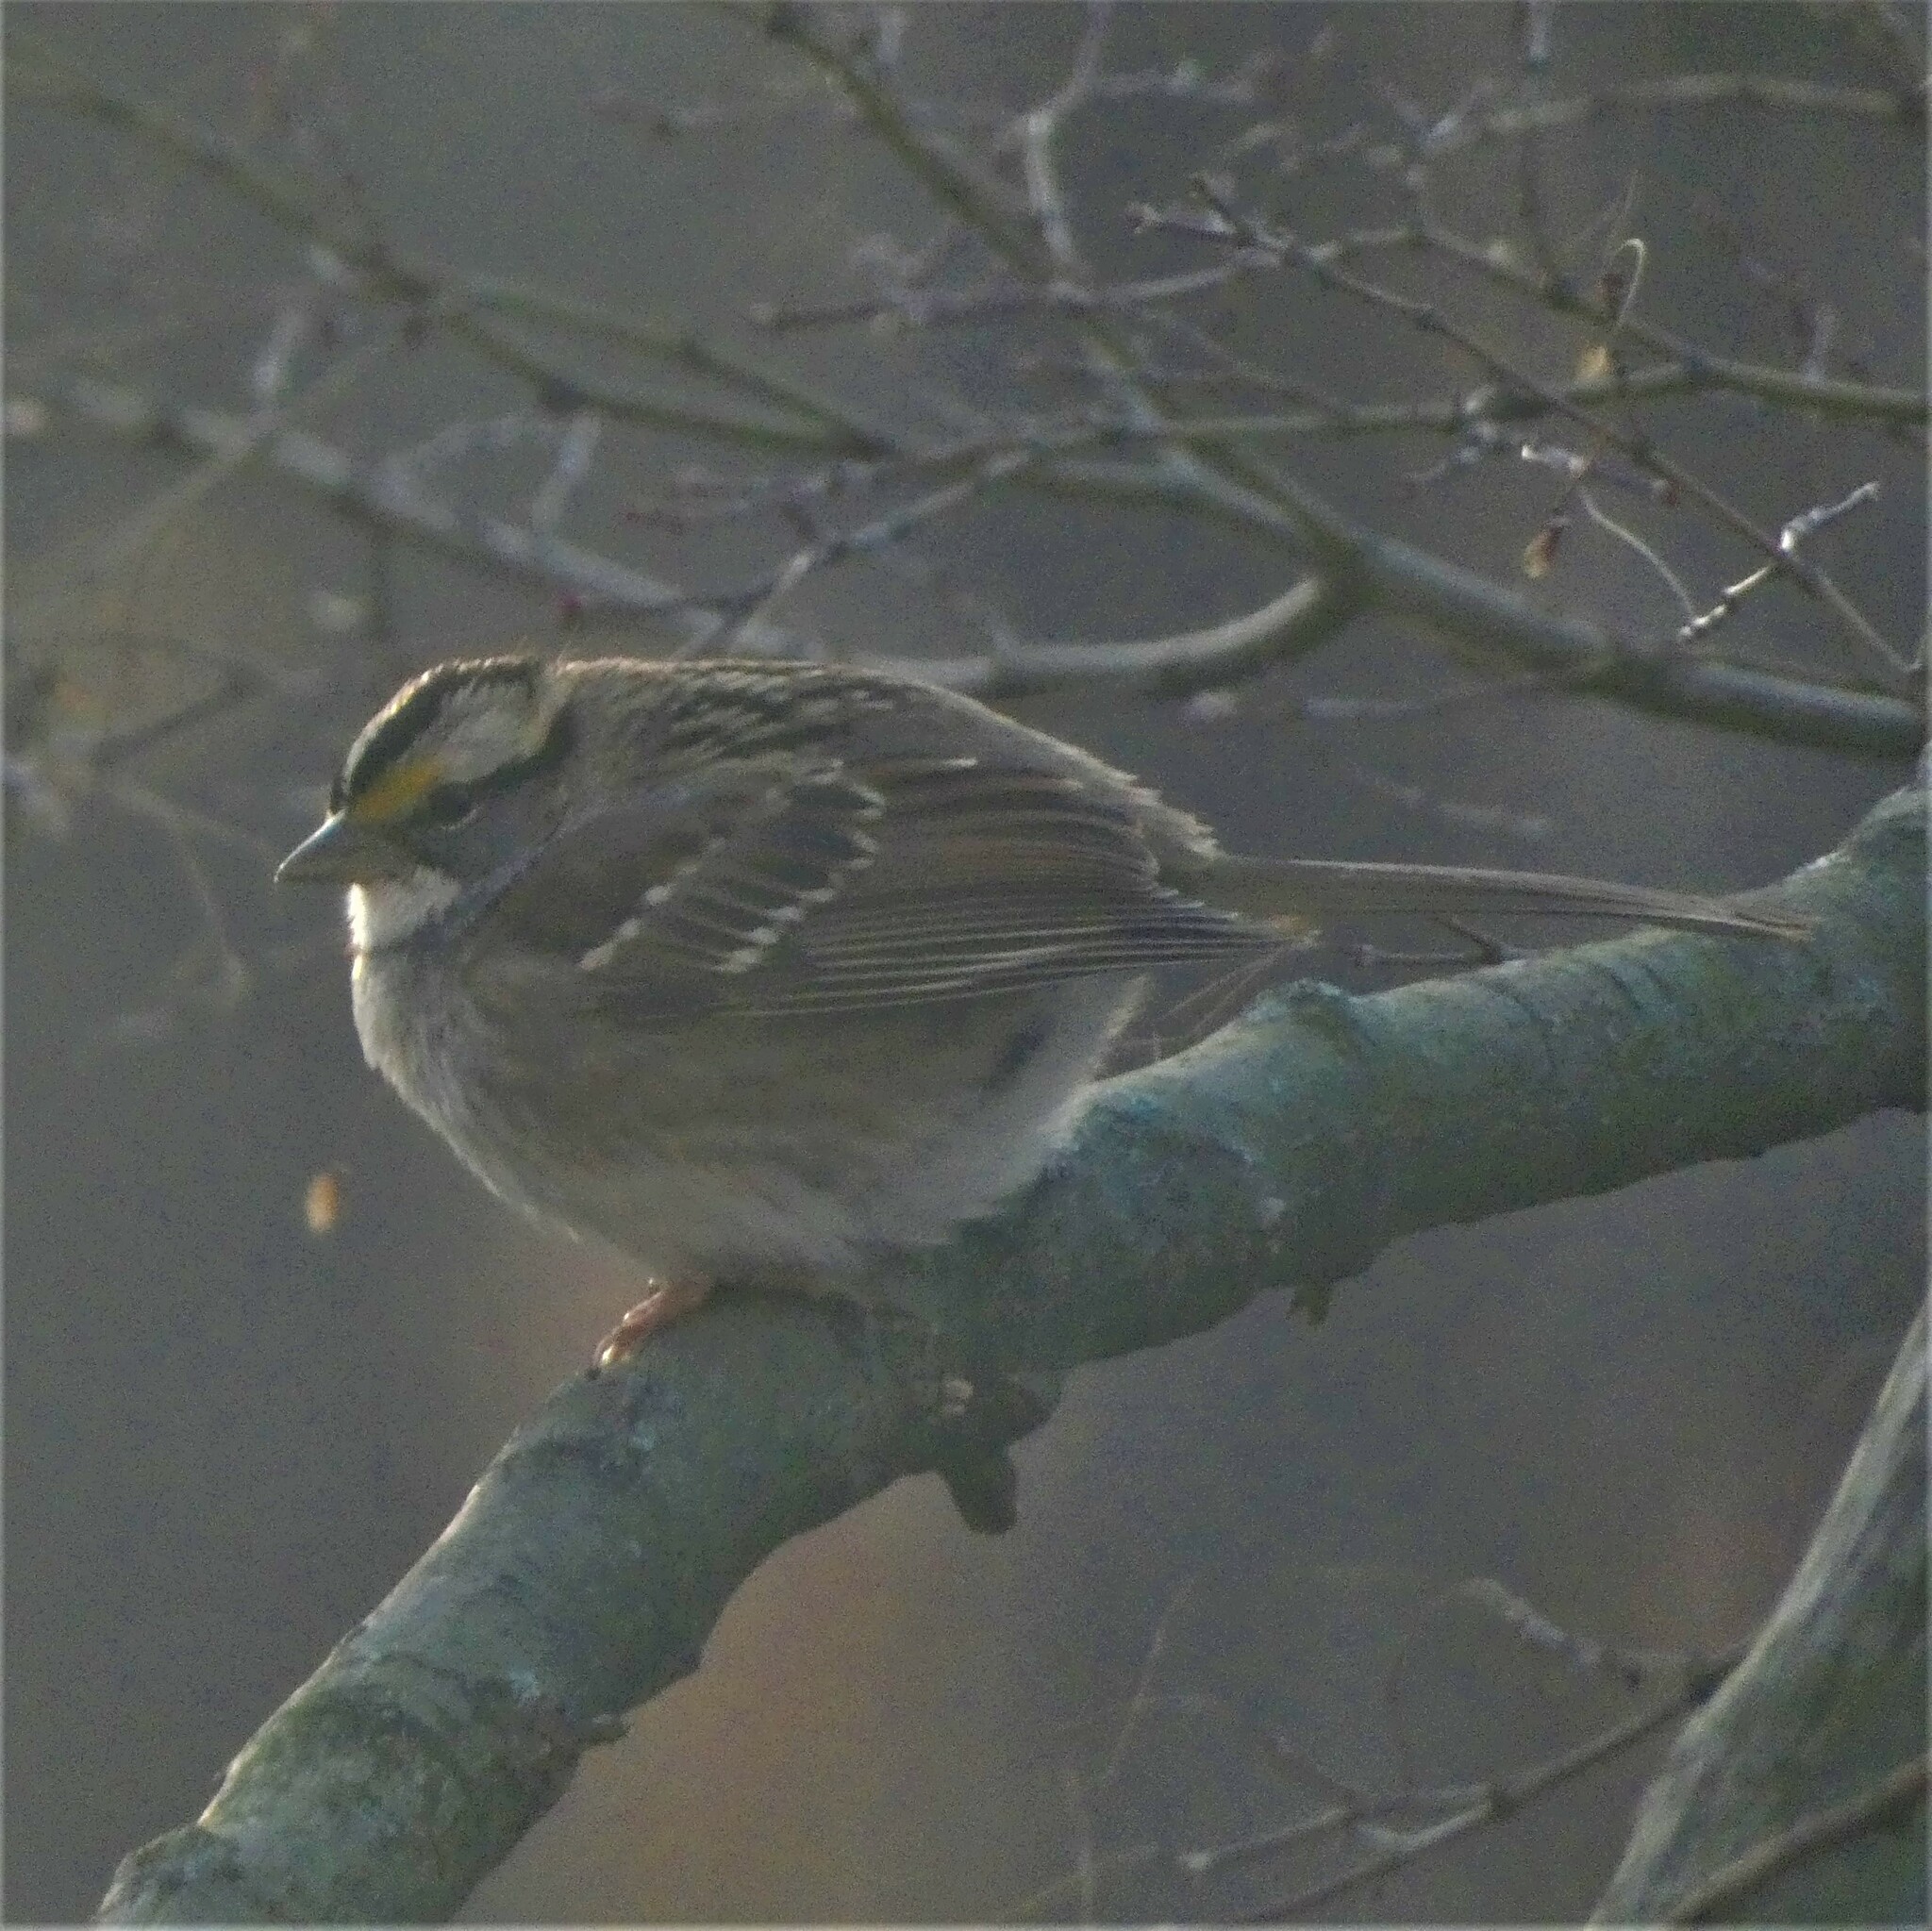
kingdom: Animalia
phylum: Chordata
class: Aves
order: Passeriformes
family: Passerellidae
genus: Zonotrichia
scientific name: Zonotrichia albicollis
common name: White-throated sparrow
